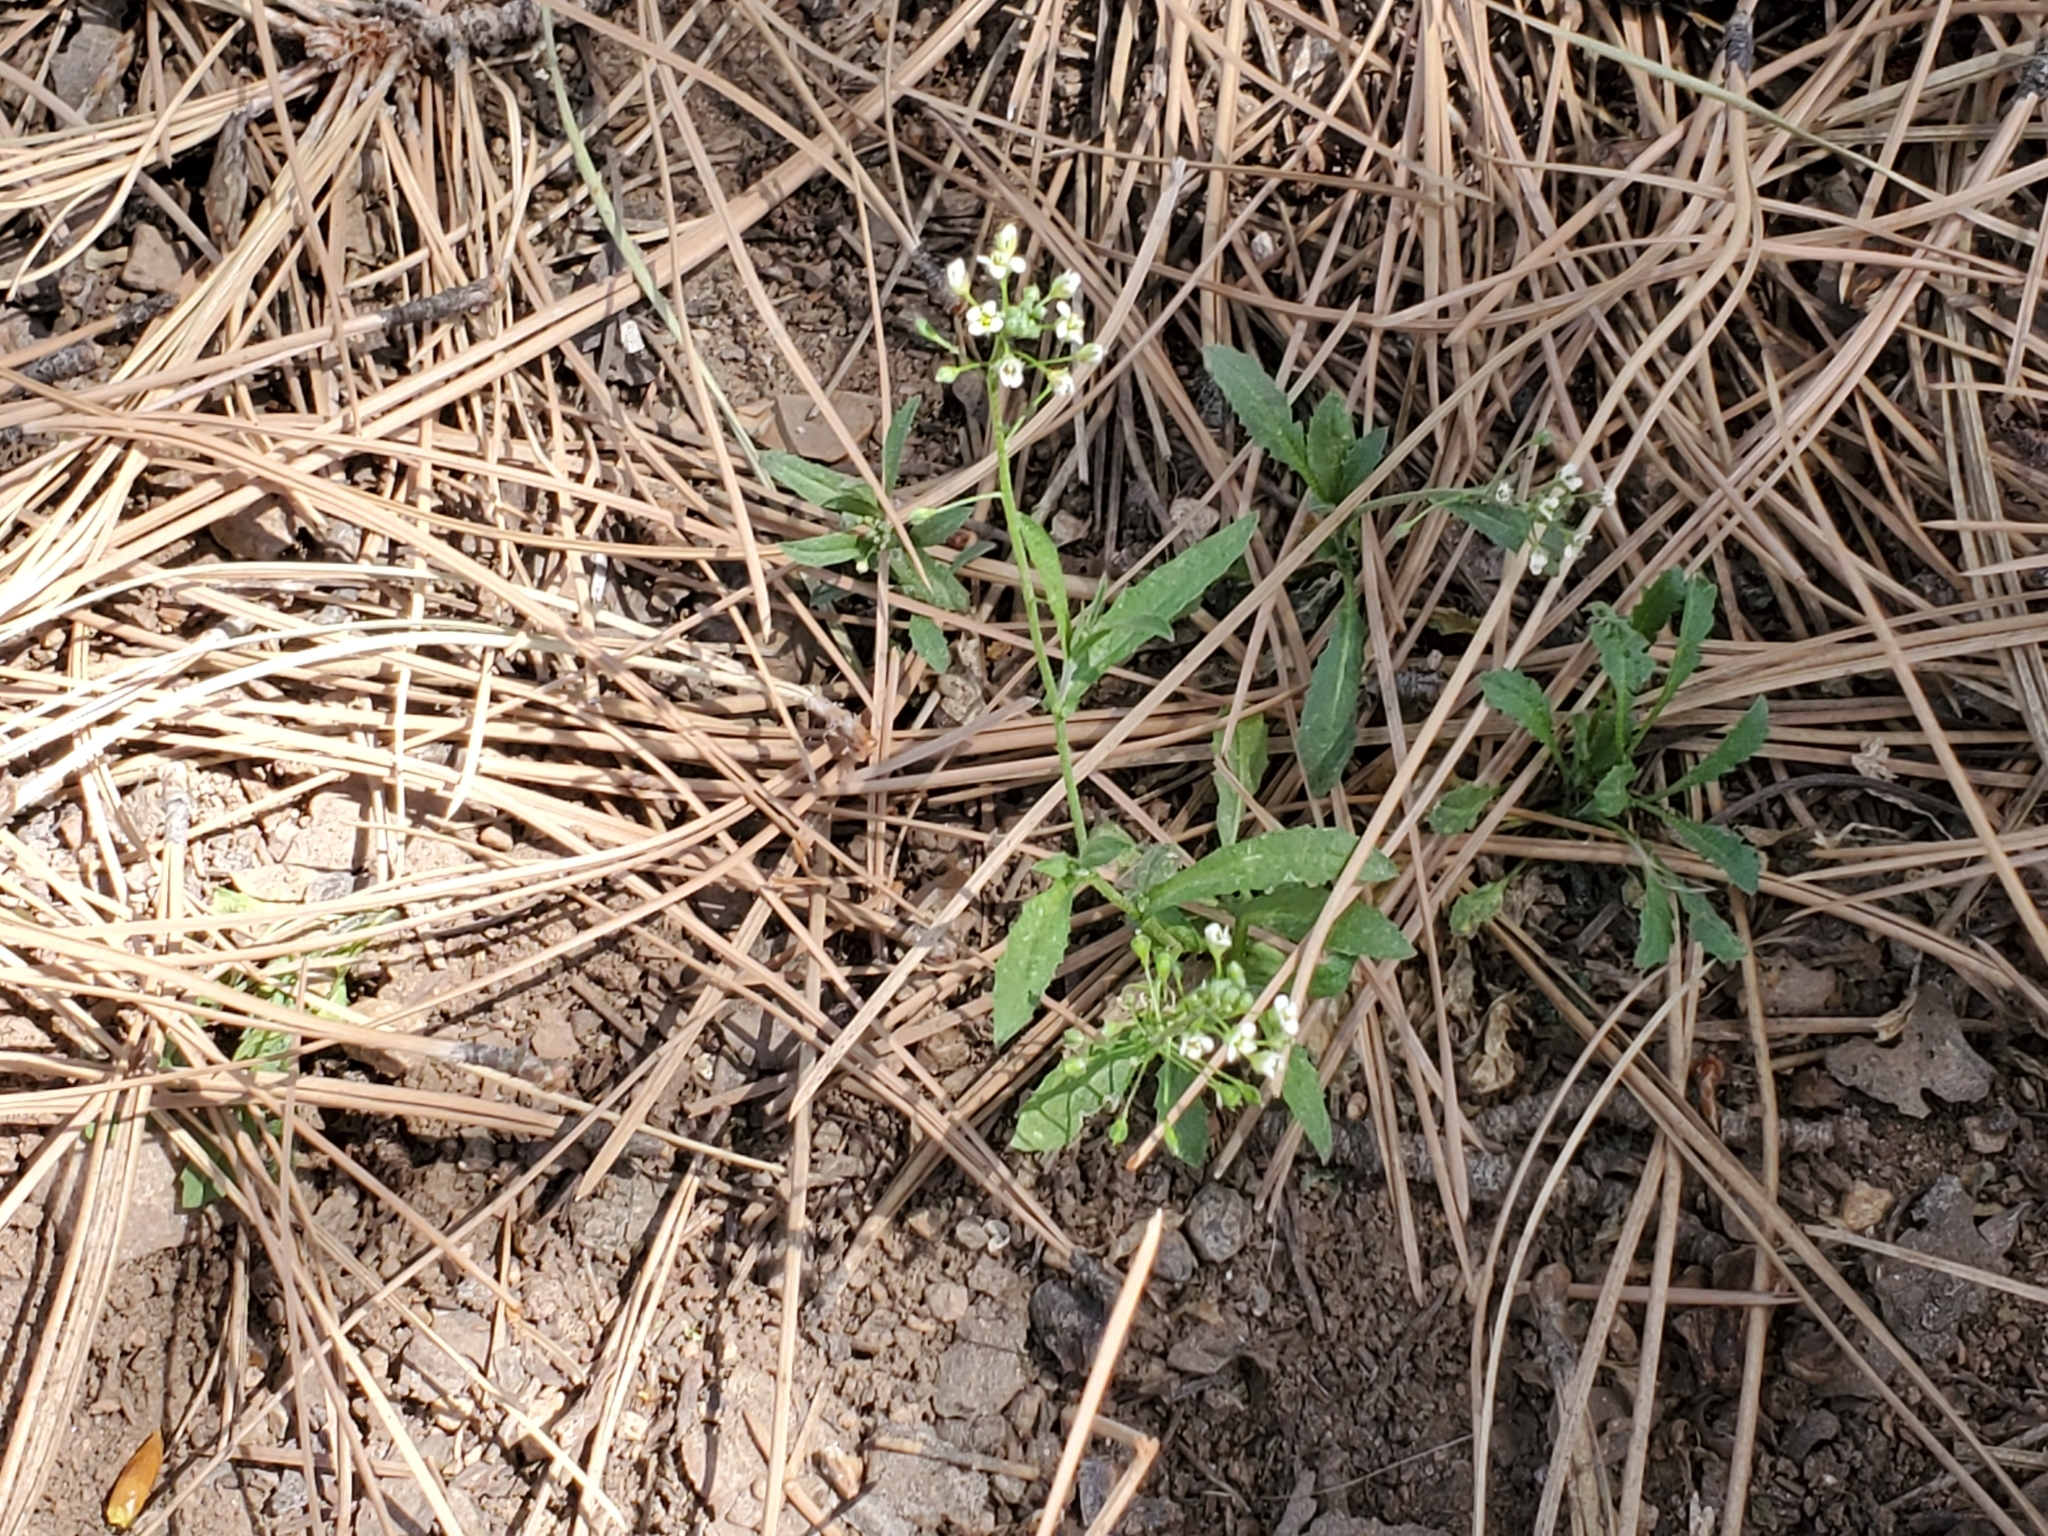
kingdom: Plantae
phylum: Tracheophyta
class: Magnoliopsida
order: Brassicales
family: Brassicaceae
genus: Capsella
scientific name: Capsella bursa-pastoris
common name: Shepherd's purse
